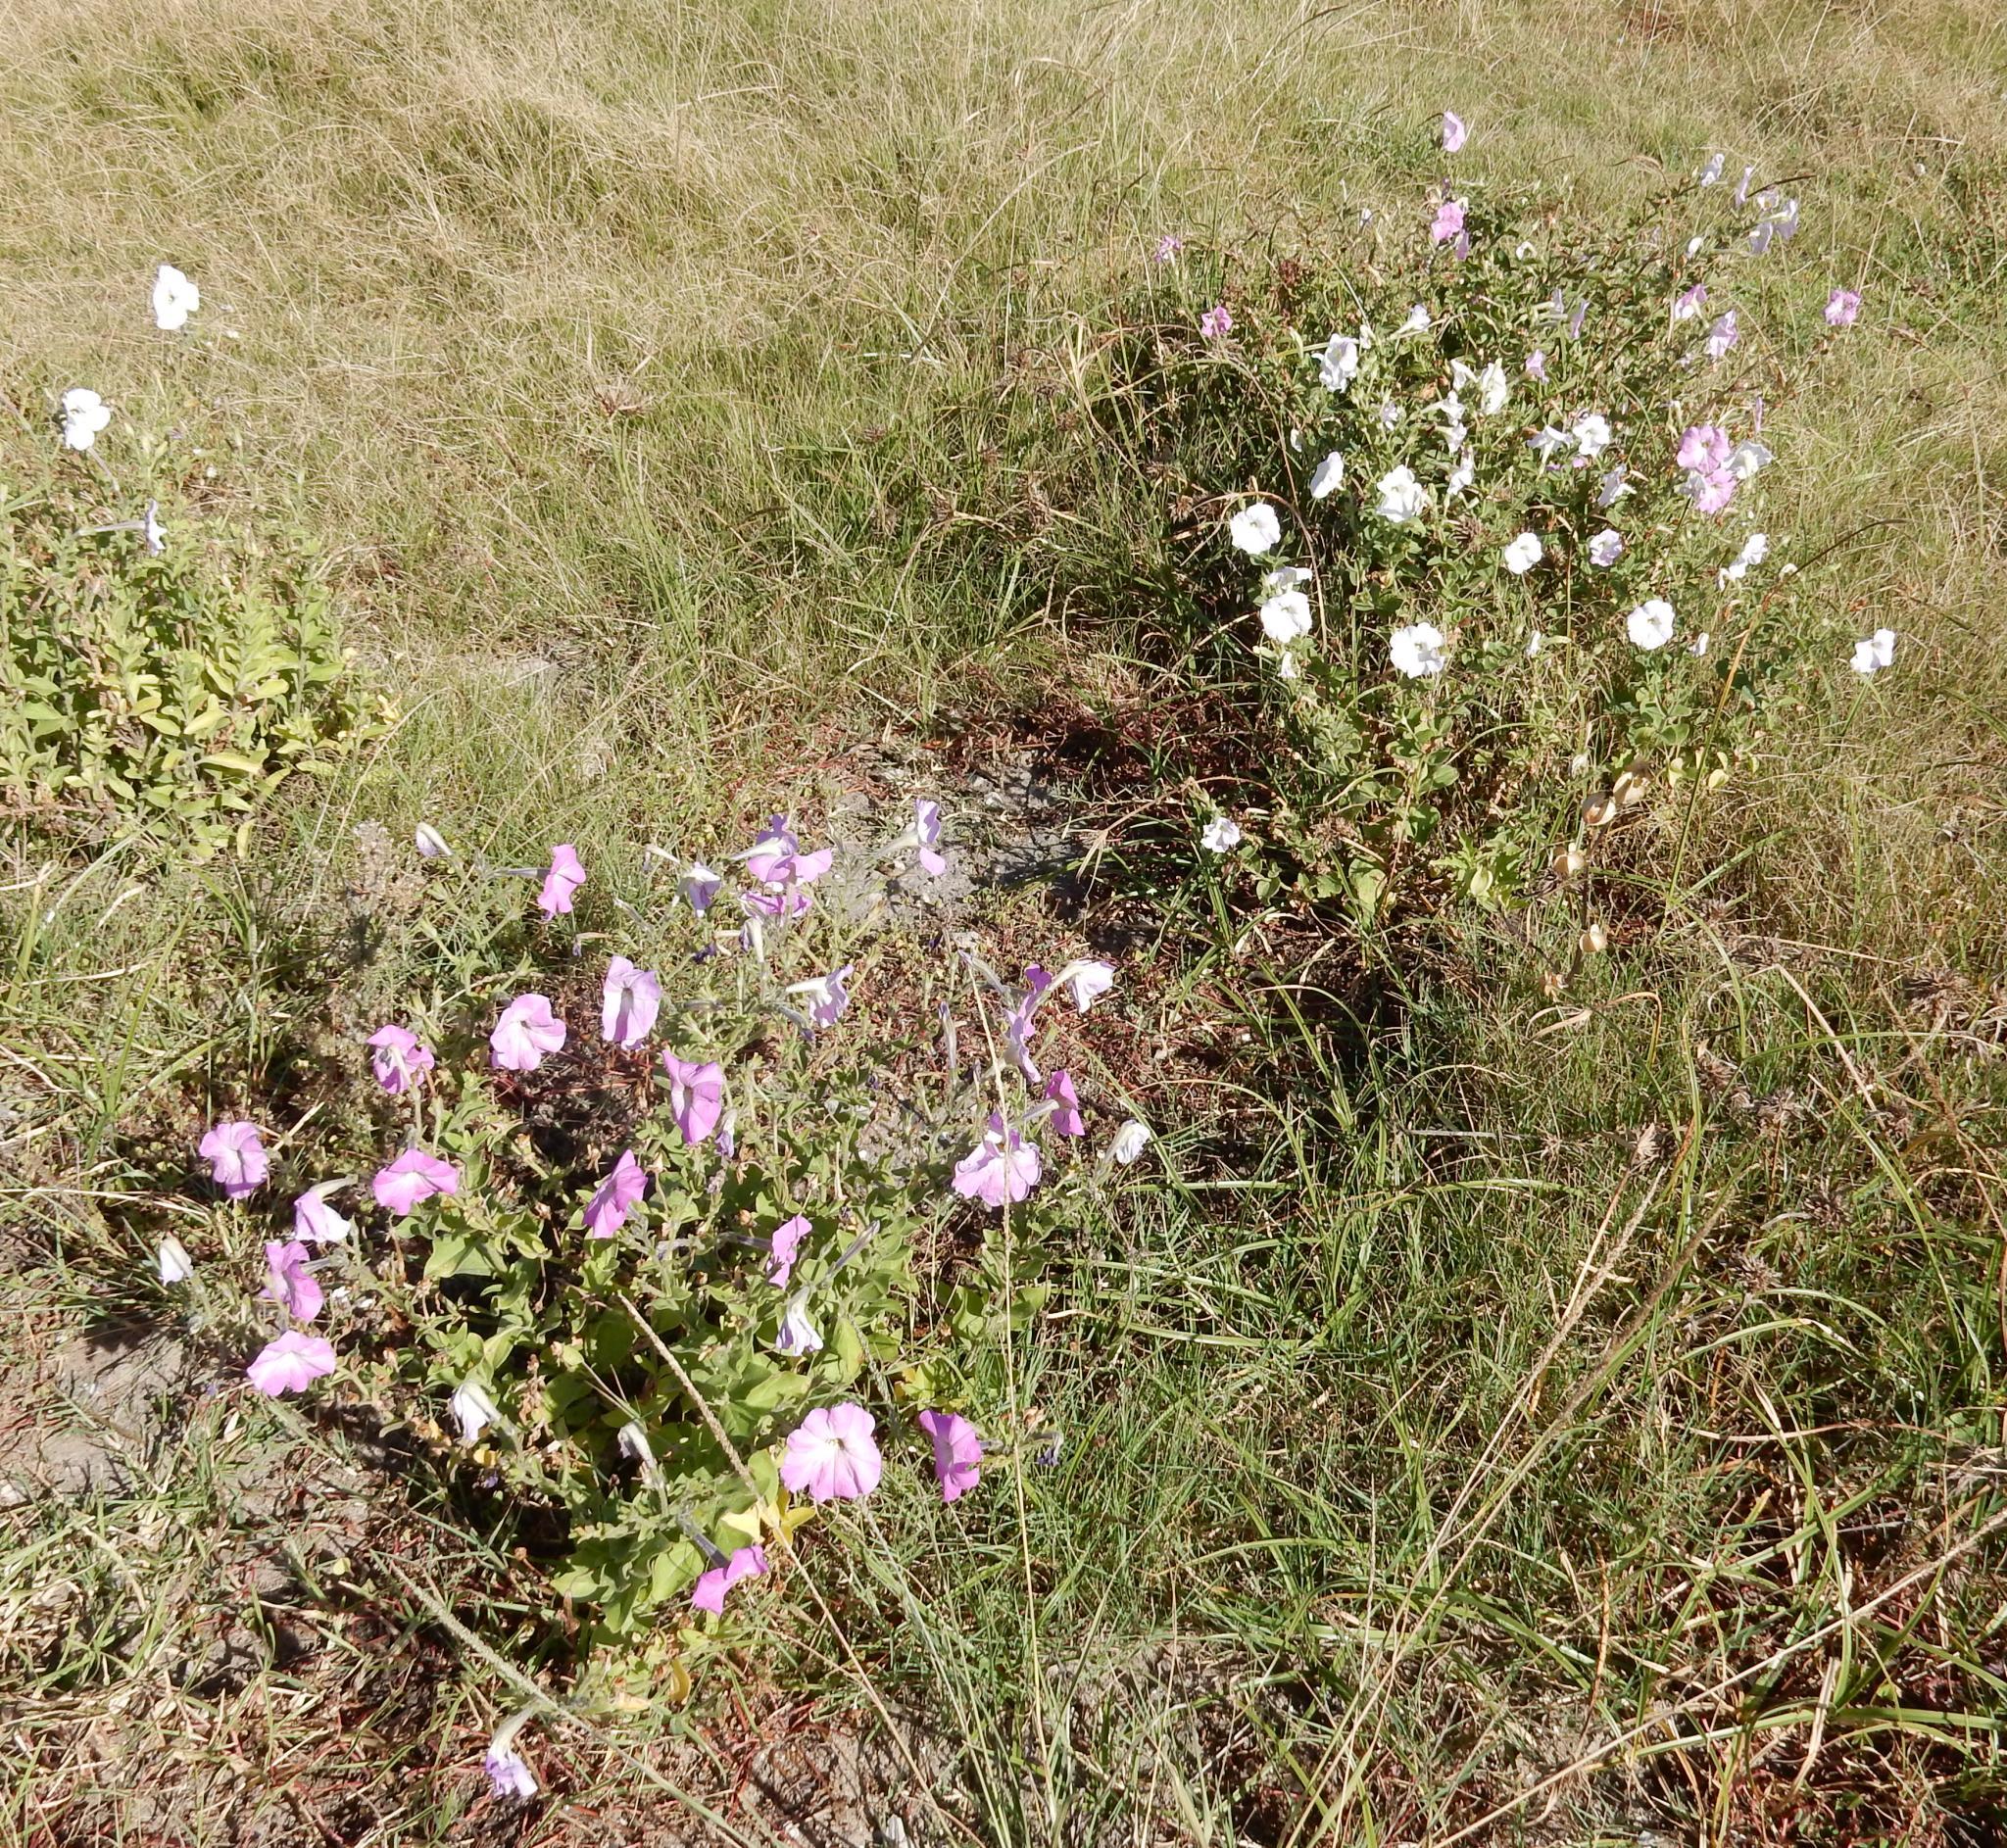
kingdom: Plantae
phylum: Tracheophyta
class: Magnoliopsida
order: Solanales
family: Solanaceae
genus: Petunia
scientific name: Petunia axillaris
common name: Large white petunia
